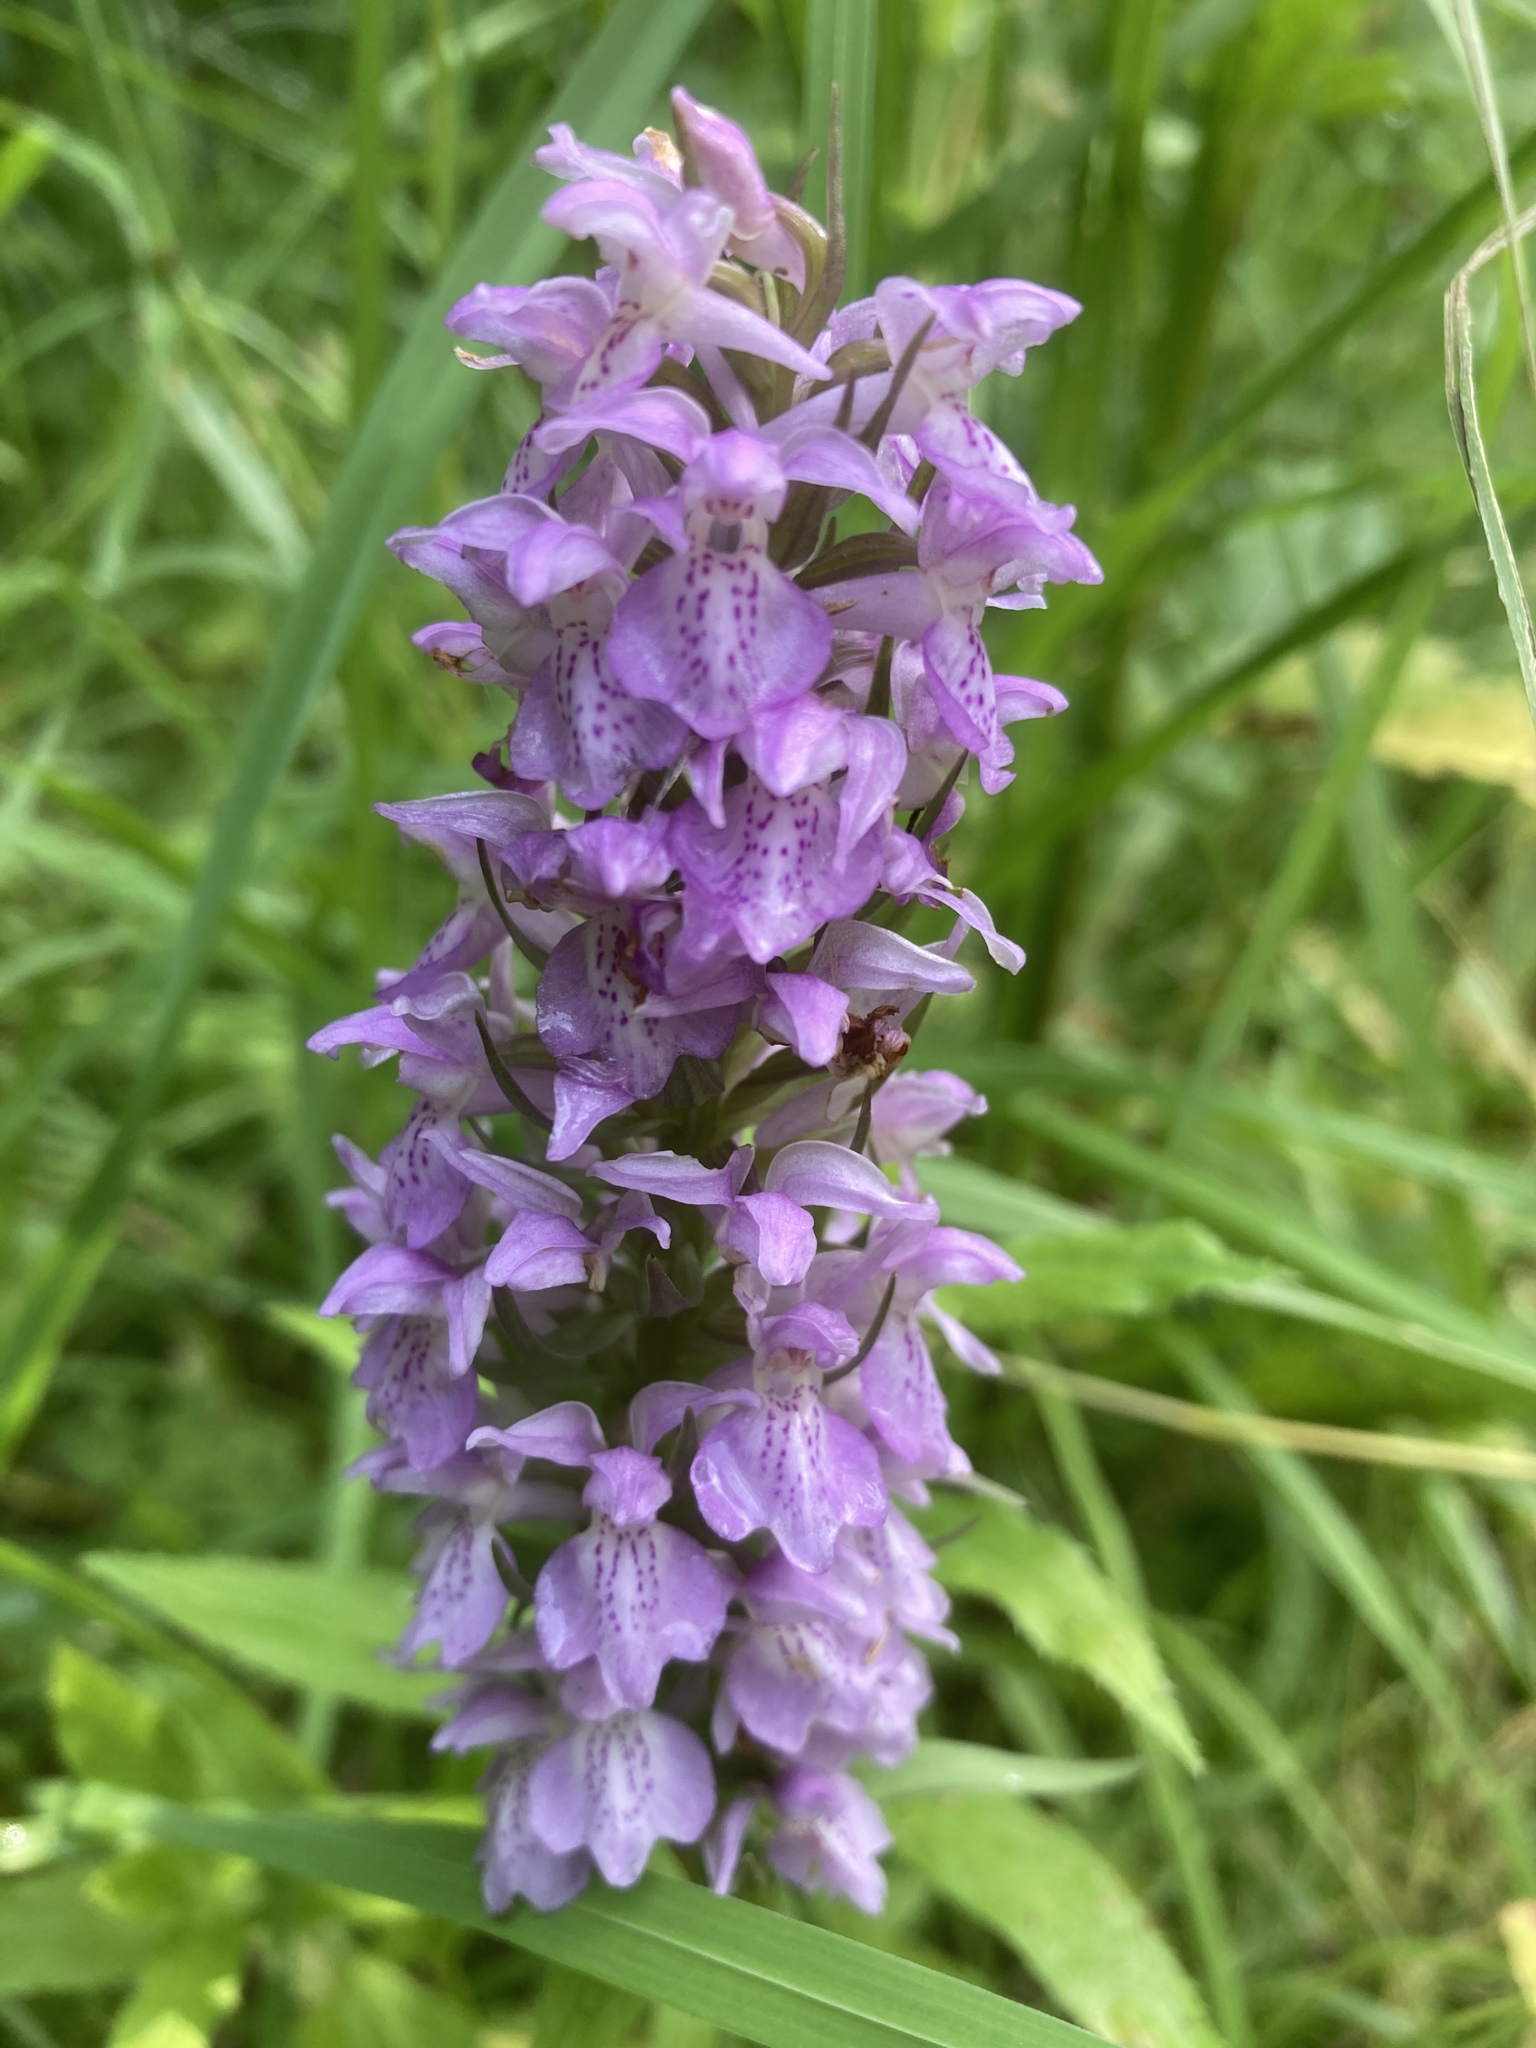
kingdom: Plantae
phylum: Tracheophyta
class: Liliopsida
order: Asparagales
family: Orchidaceae
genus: Dactylorhiza
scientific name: Dactylorhiza majalis
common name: Marsh orchid
